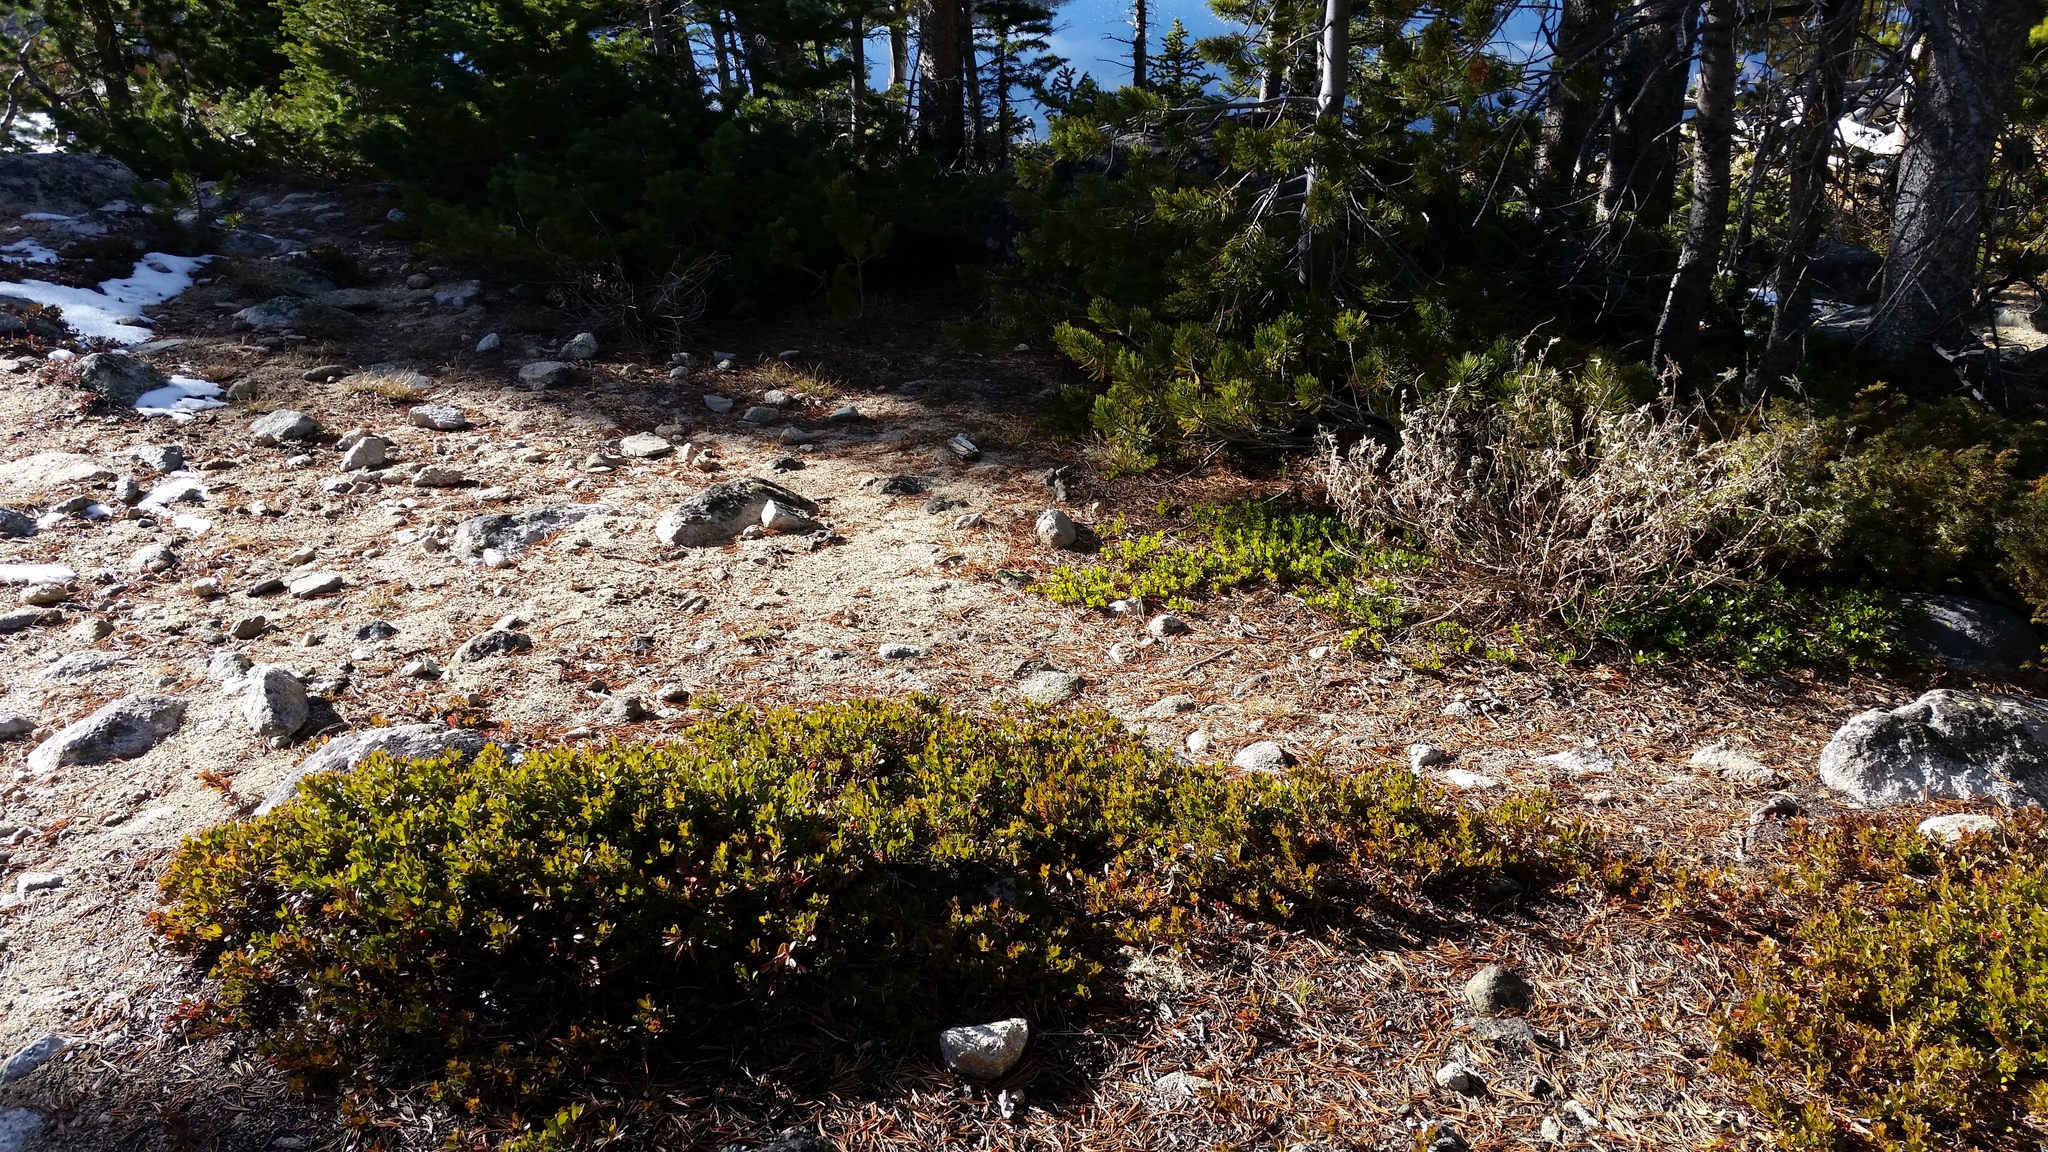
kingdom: Plantae
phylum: Tracheophyta
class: Magnoliopsida
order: Ericales
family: Ericaceae
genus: Arctostaphylos
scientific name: Arctostaphylos uva-ursi
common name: Bearberry
